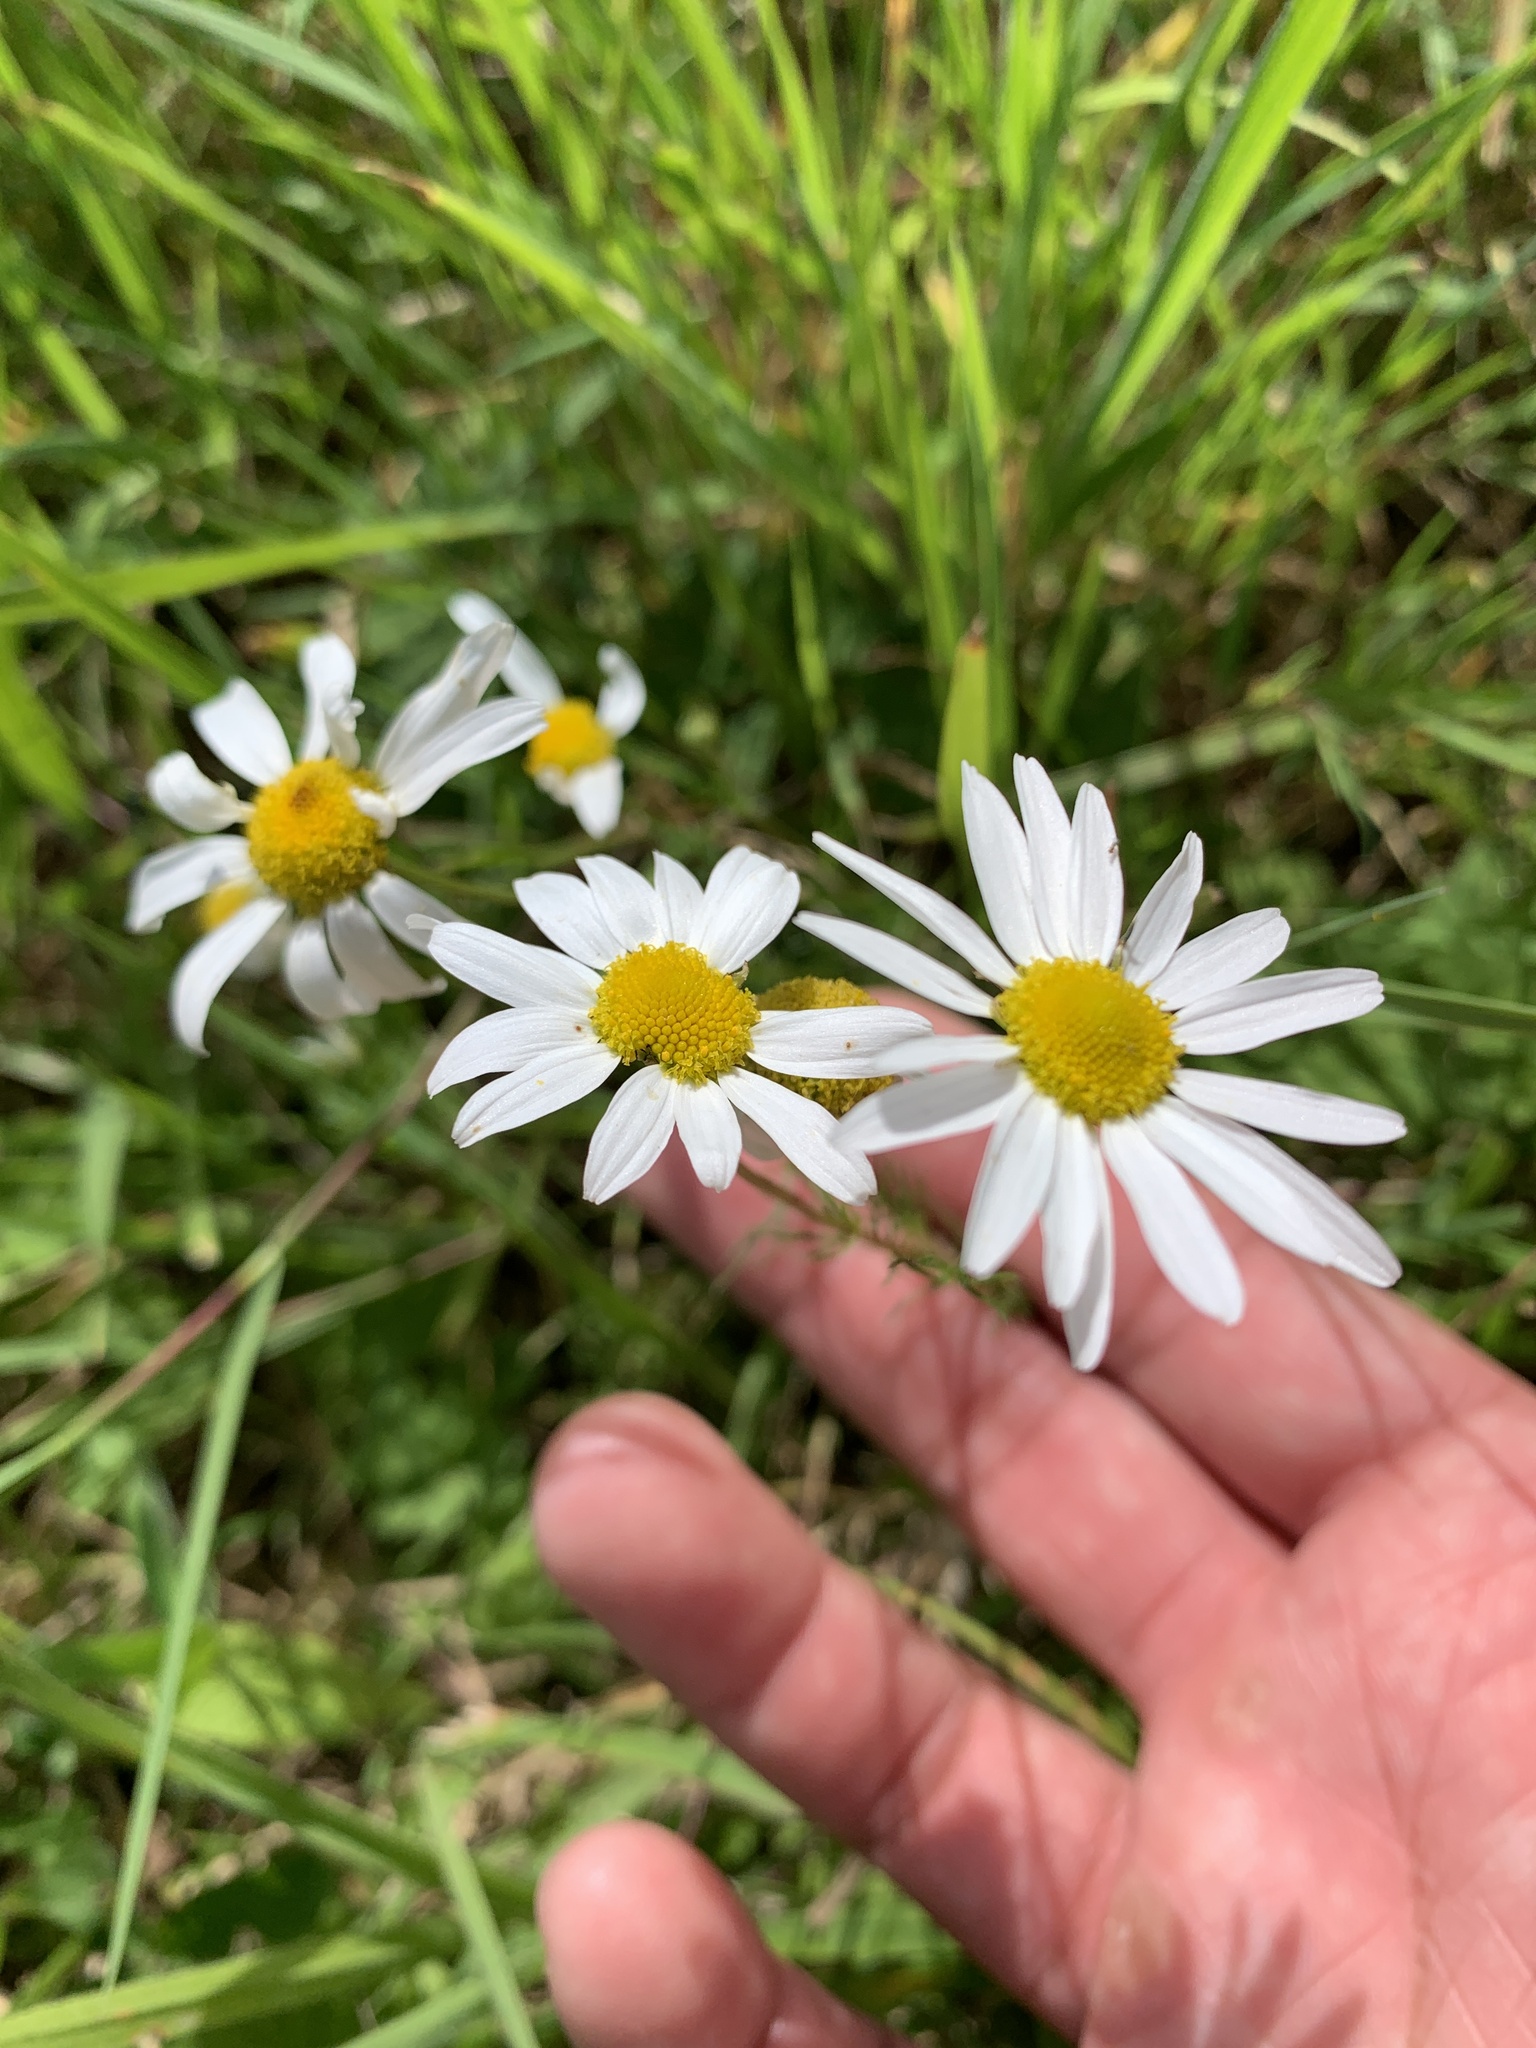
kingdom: Plantae
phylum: Tracheophyta
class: Magnoliopsida
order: Asterales
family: Asteraceae
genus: Leucanthemum
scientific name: Leucanthemum vulgare
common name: Oxeye daisy
